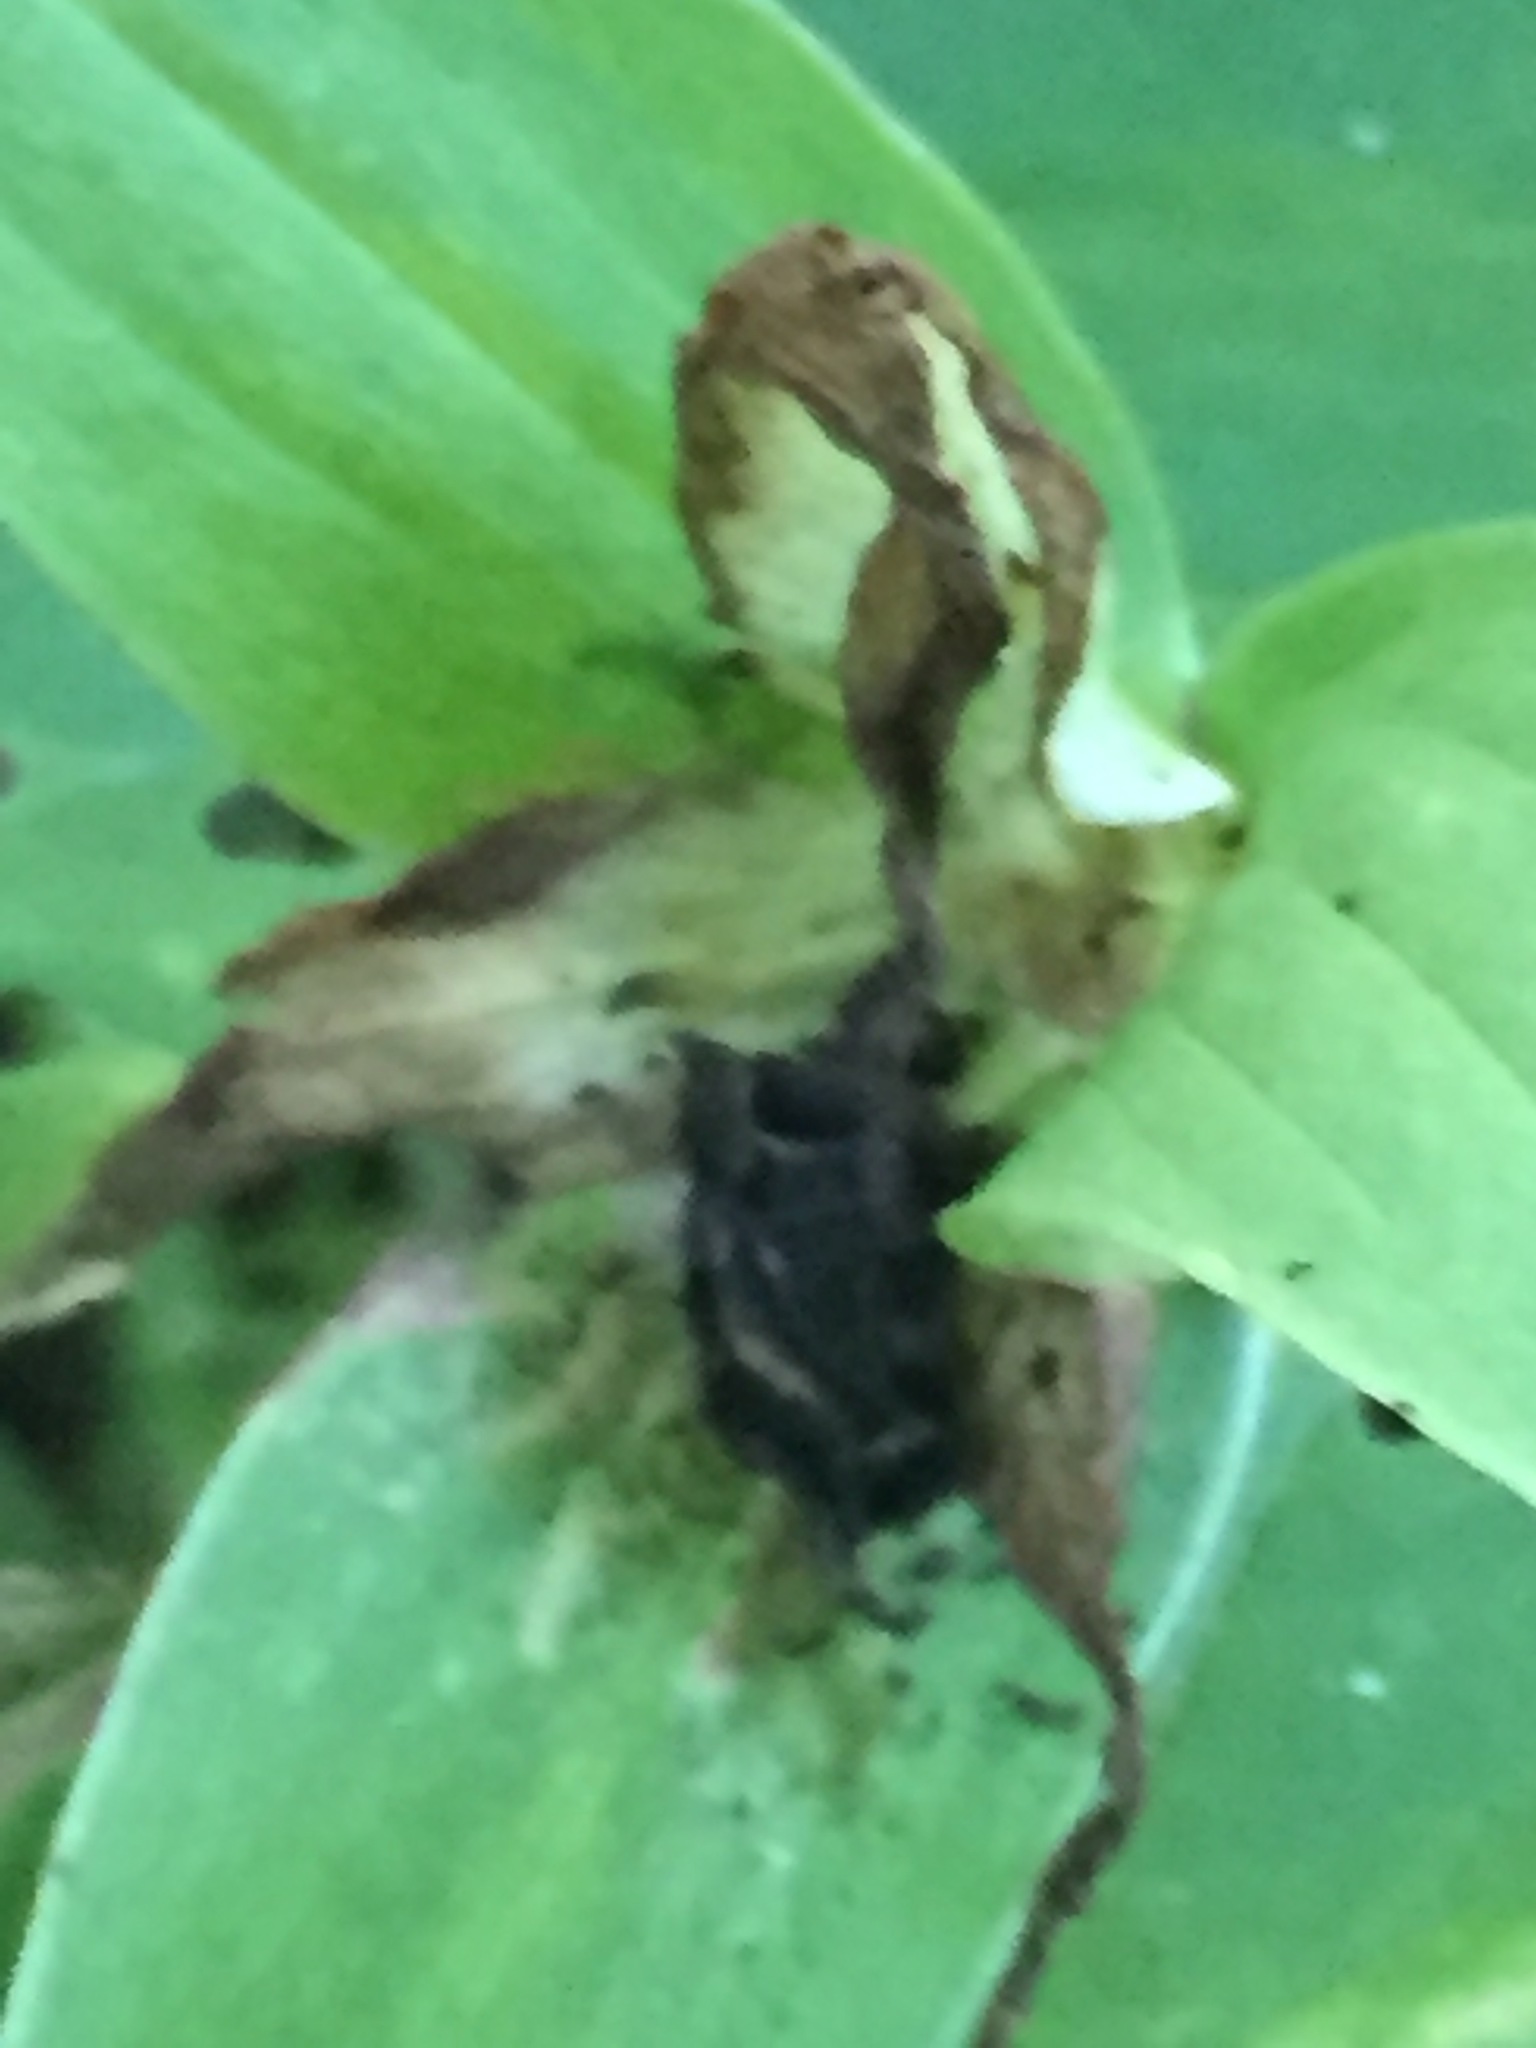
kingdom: Plantae
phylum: Tracheophyta
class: Liliopsida
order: Liliales
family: Melanthiaceae
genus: Trillium
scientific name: Trillium grandiflorum
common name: Great white trillium
